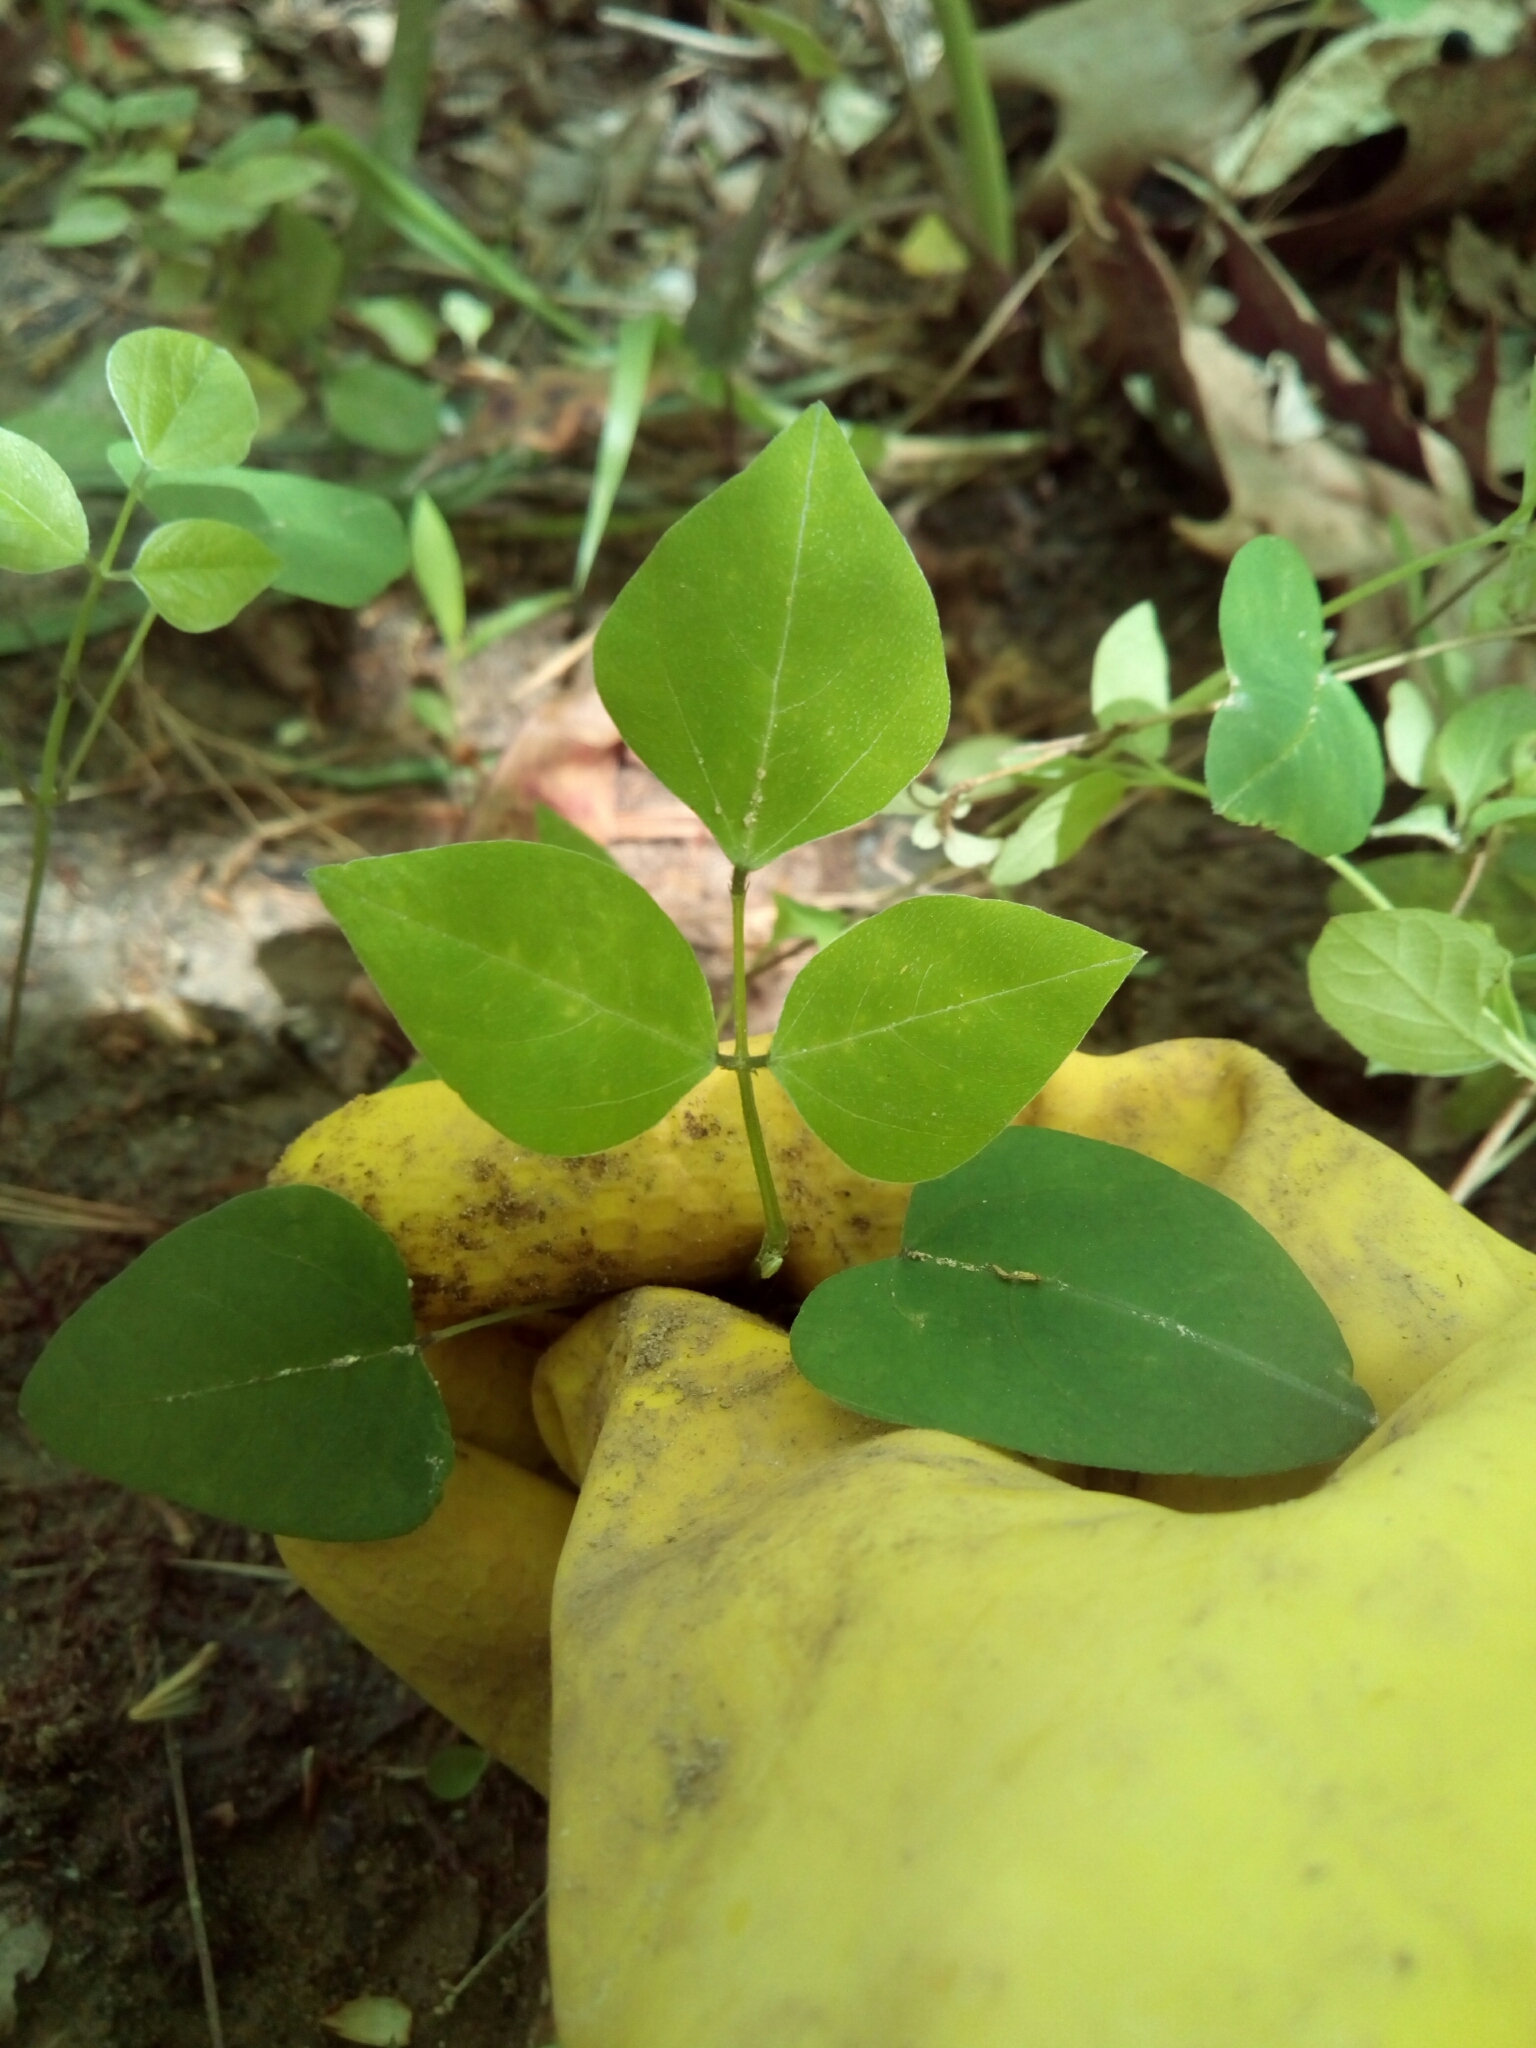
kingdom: Plantae
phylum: Tracheophyta
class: Magnoliopsida
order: Fabales
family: Fabaceae
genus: Amphicarpaea
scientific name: Amphicarpaea bracteata
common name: American hog peanut
